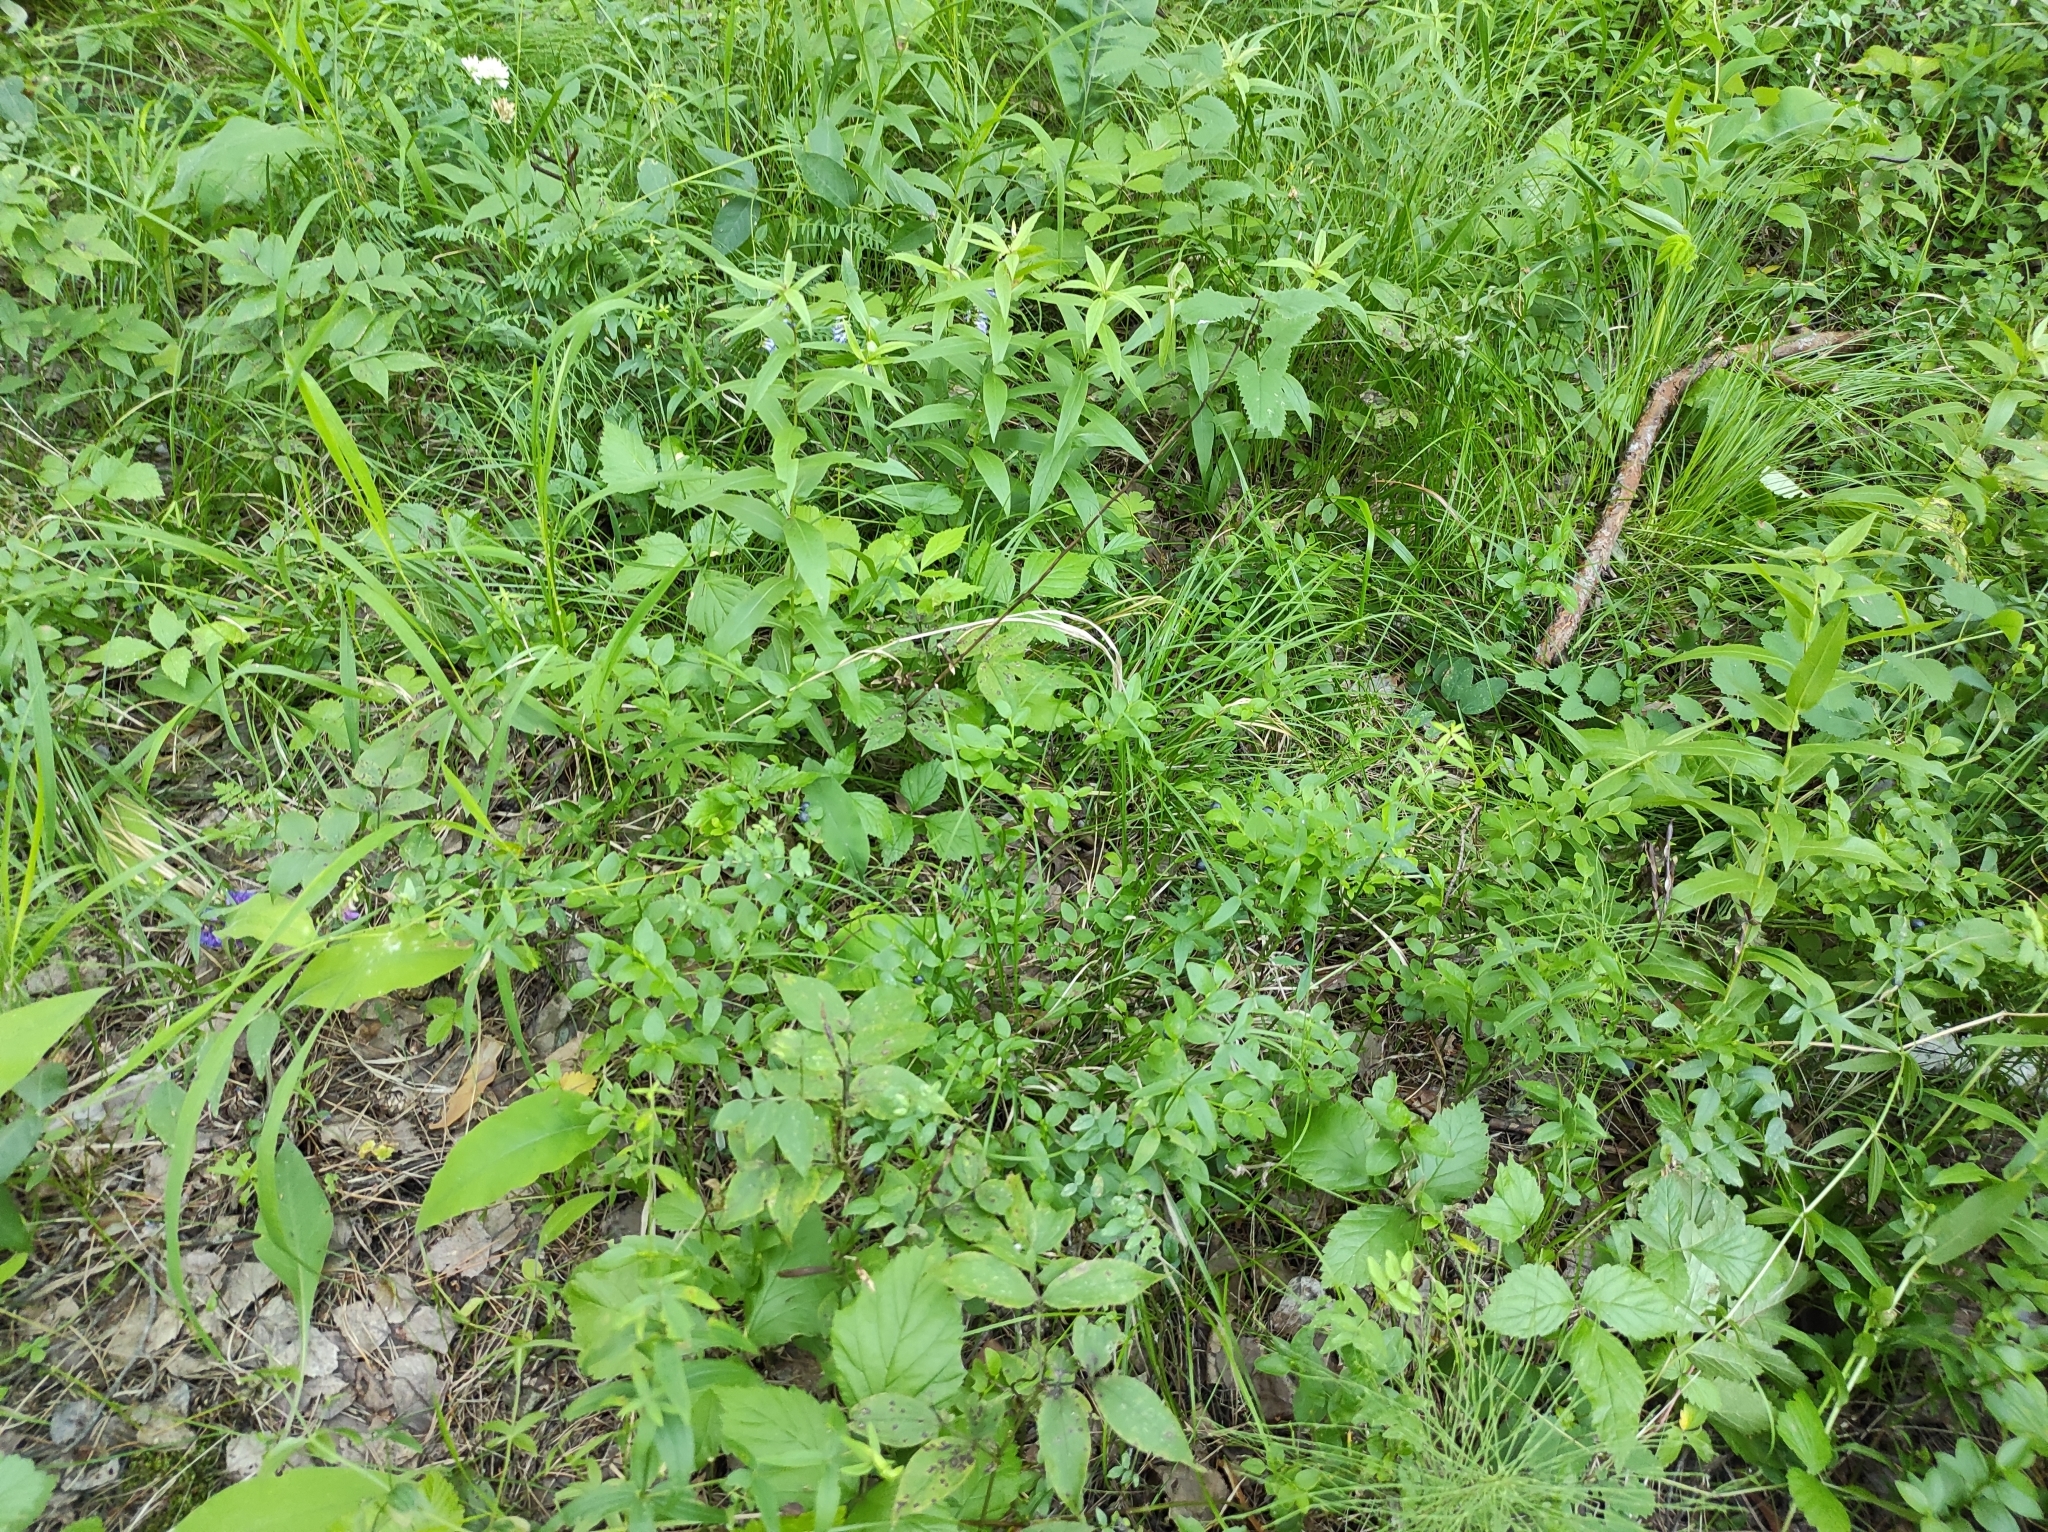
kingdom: Plantae
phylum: Tracheophyta
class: Magnoliopsida
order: Ericales
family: Ericaceae
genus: Vaccinium
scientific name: Vaccinium myrtillus
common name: Bilberry
